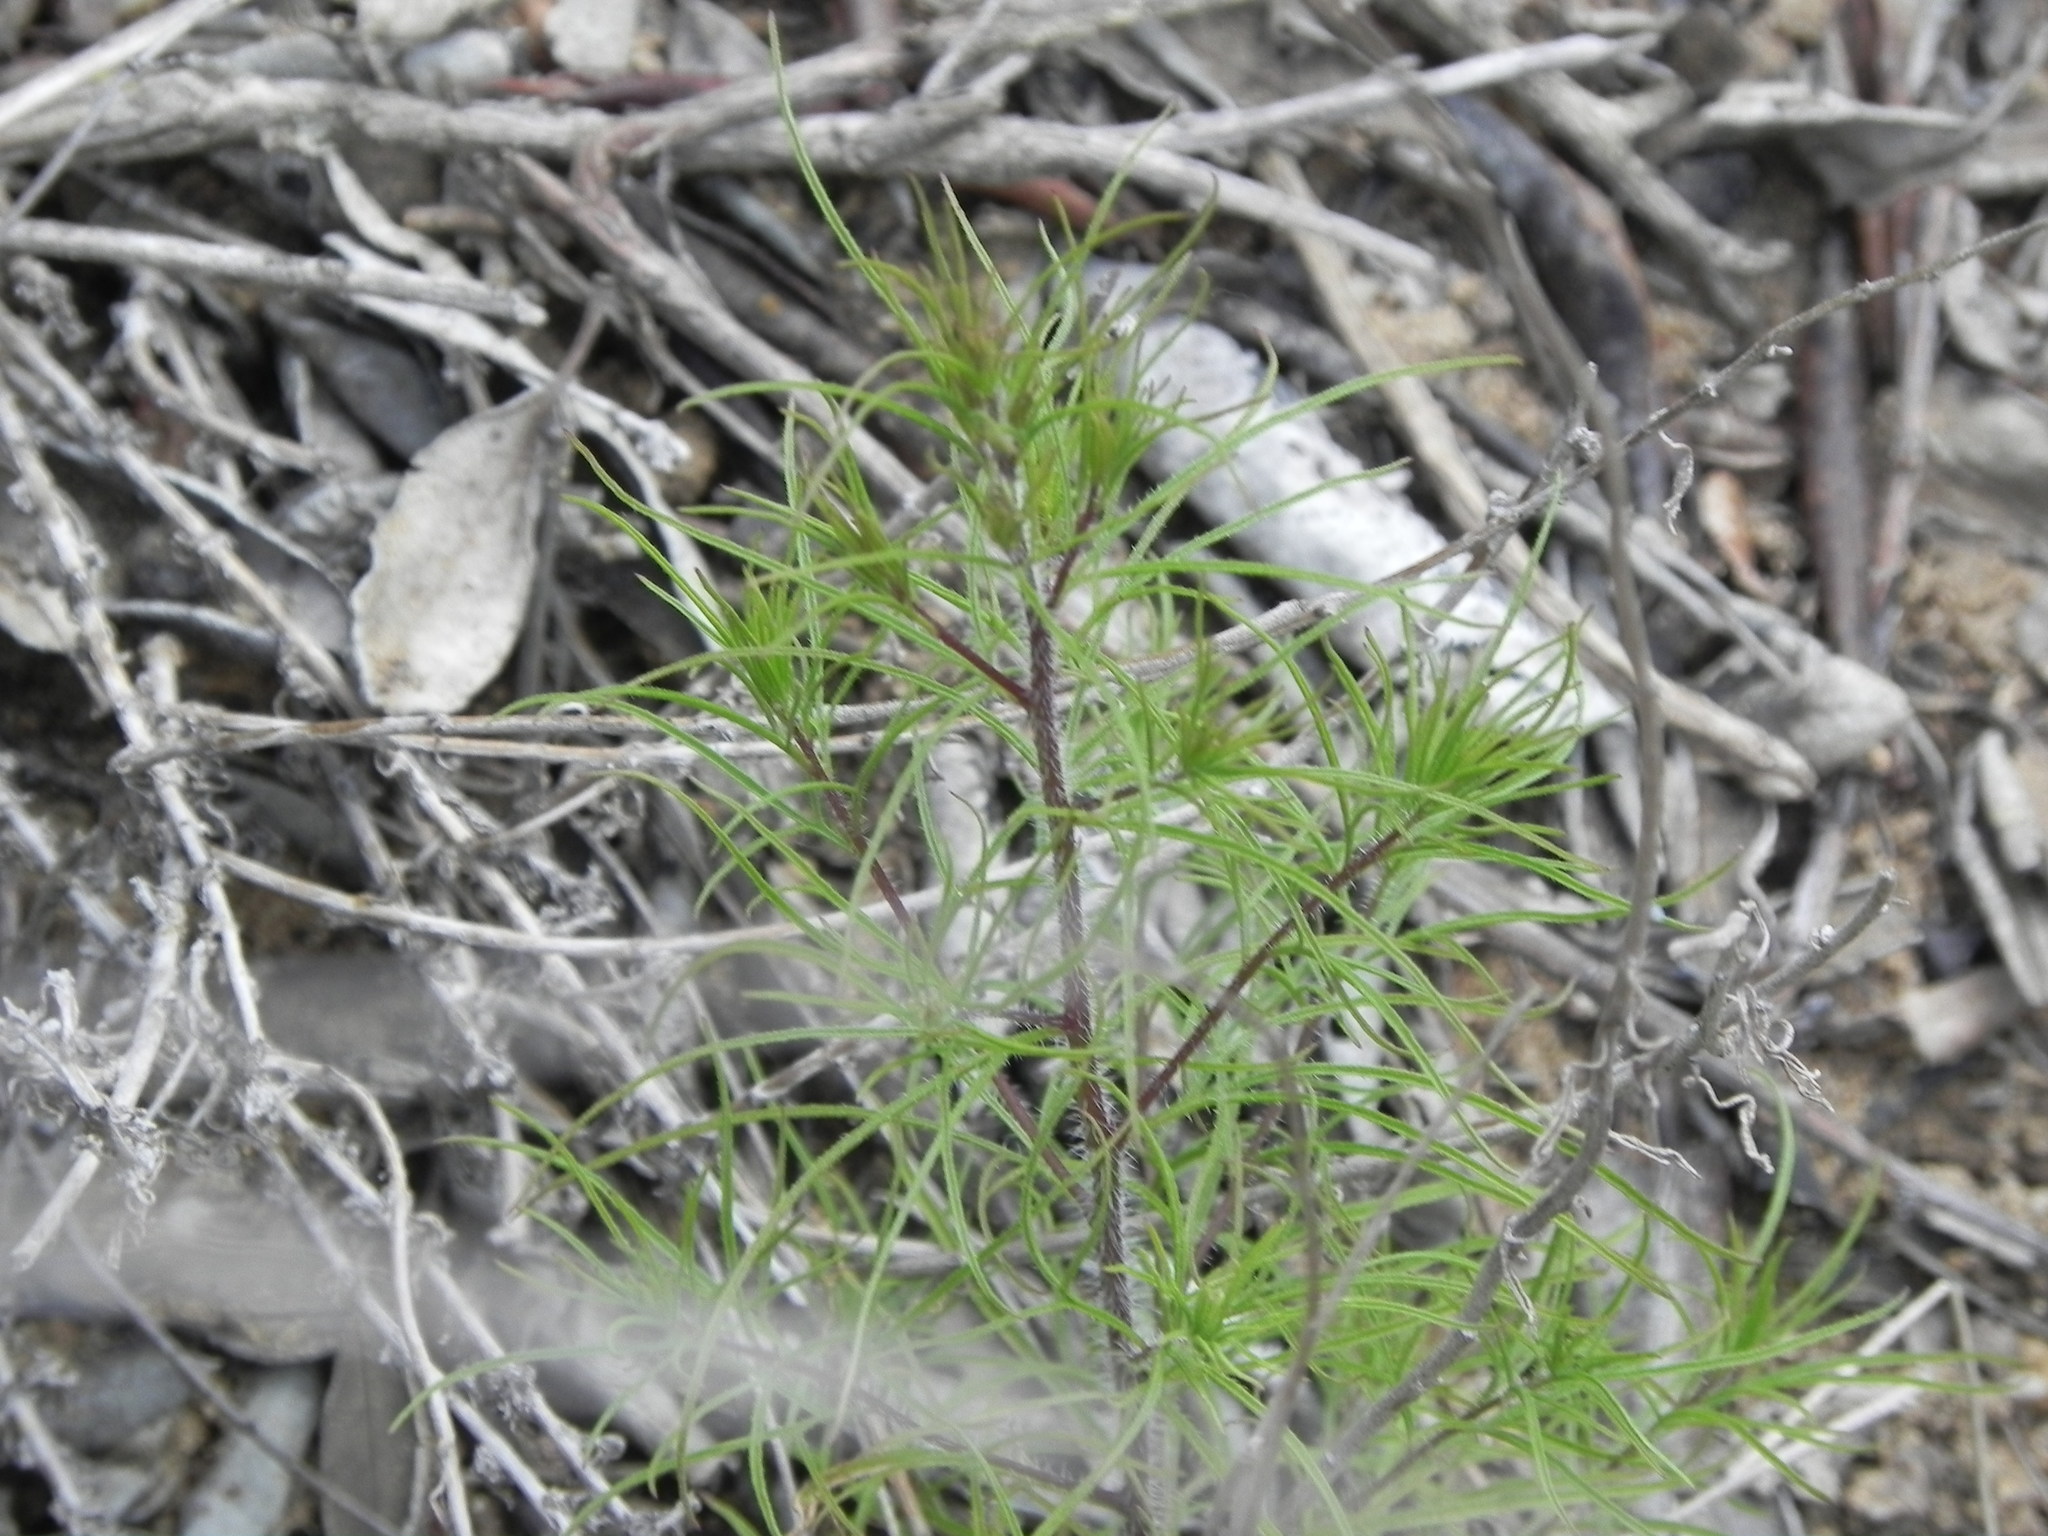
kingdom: Plantae
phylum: Tracheophyta
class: Magnoliopsida
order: Lamiales
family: Orobanchaceae
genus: Cordylanthus
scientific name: Cordylanthus rigidus
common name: Stiff-branch bird's-beak
